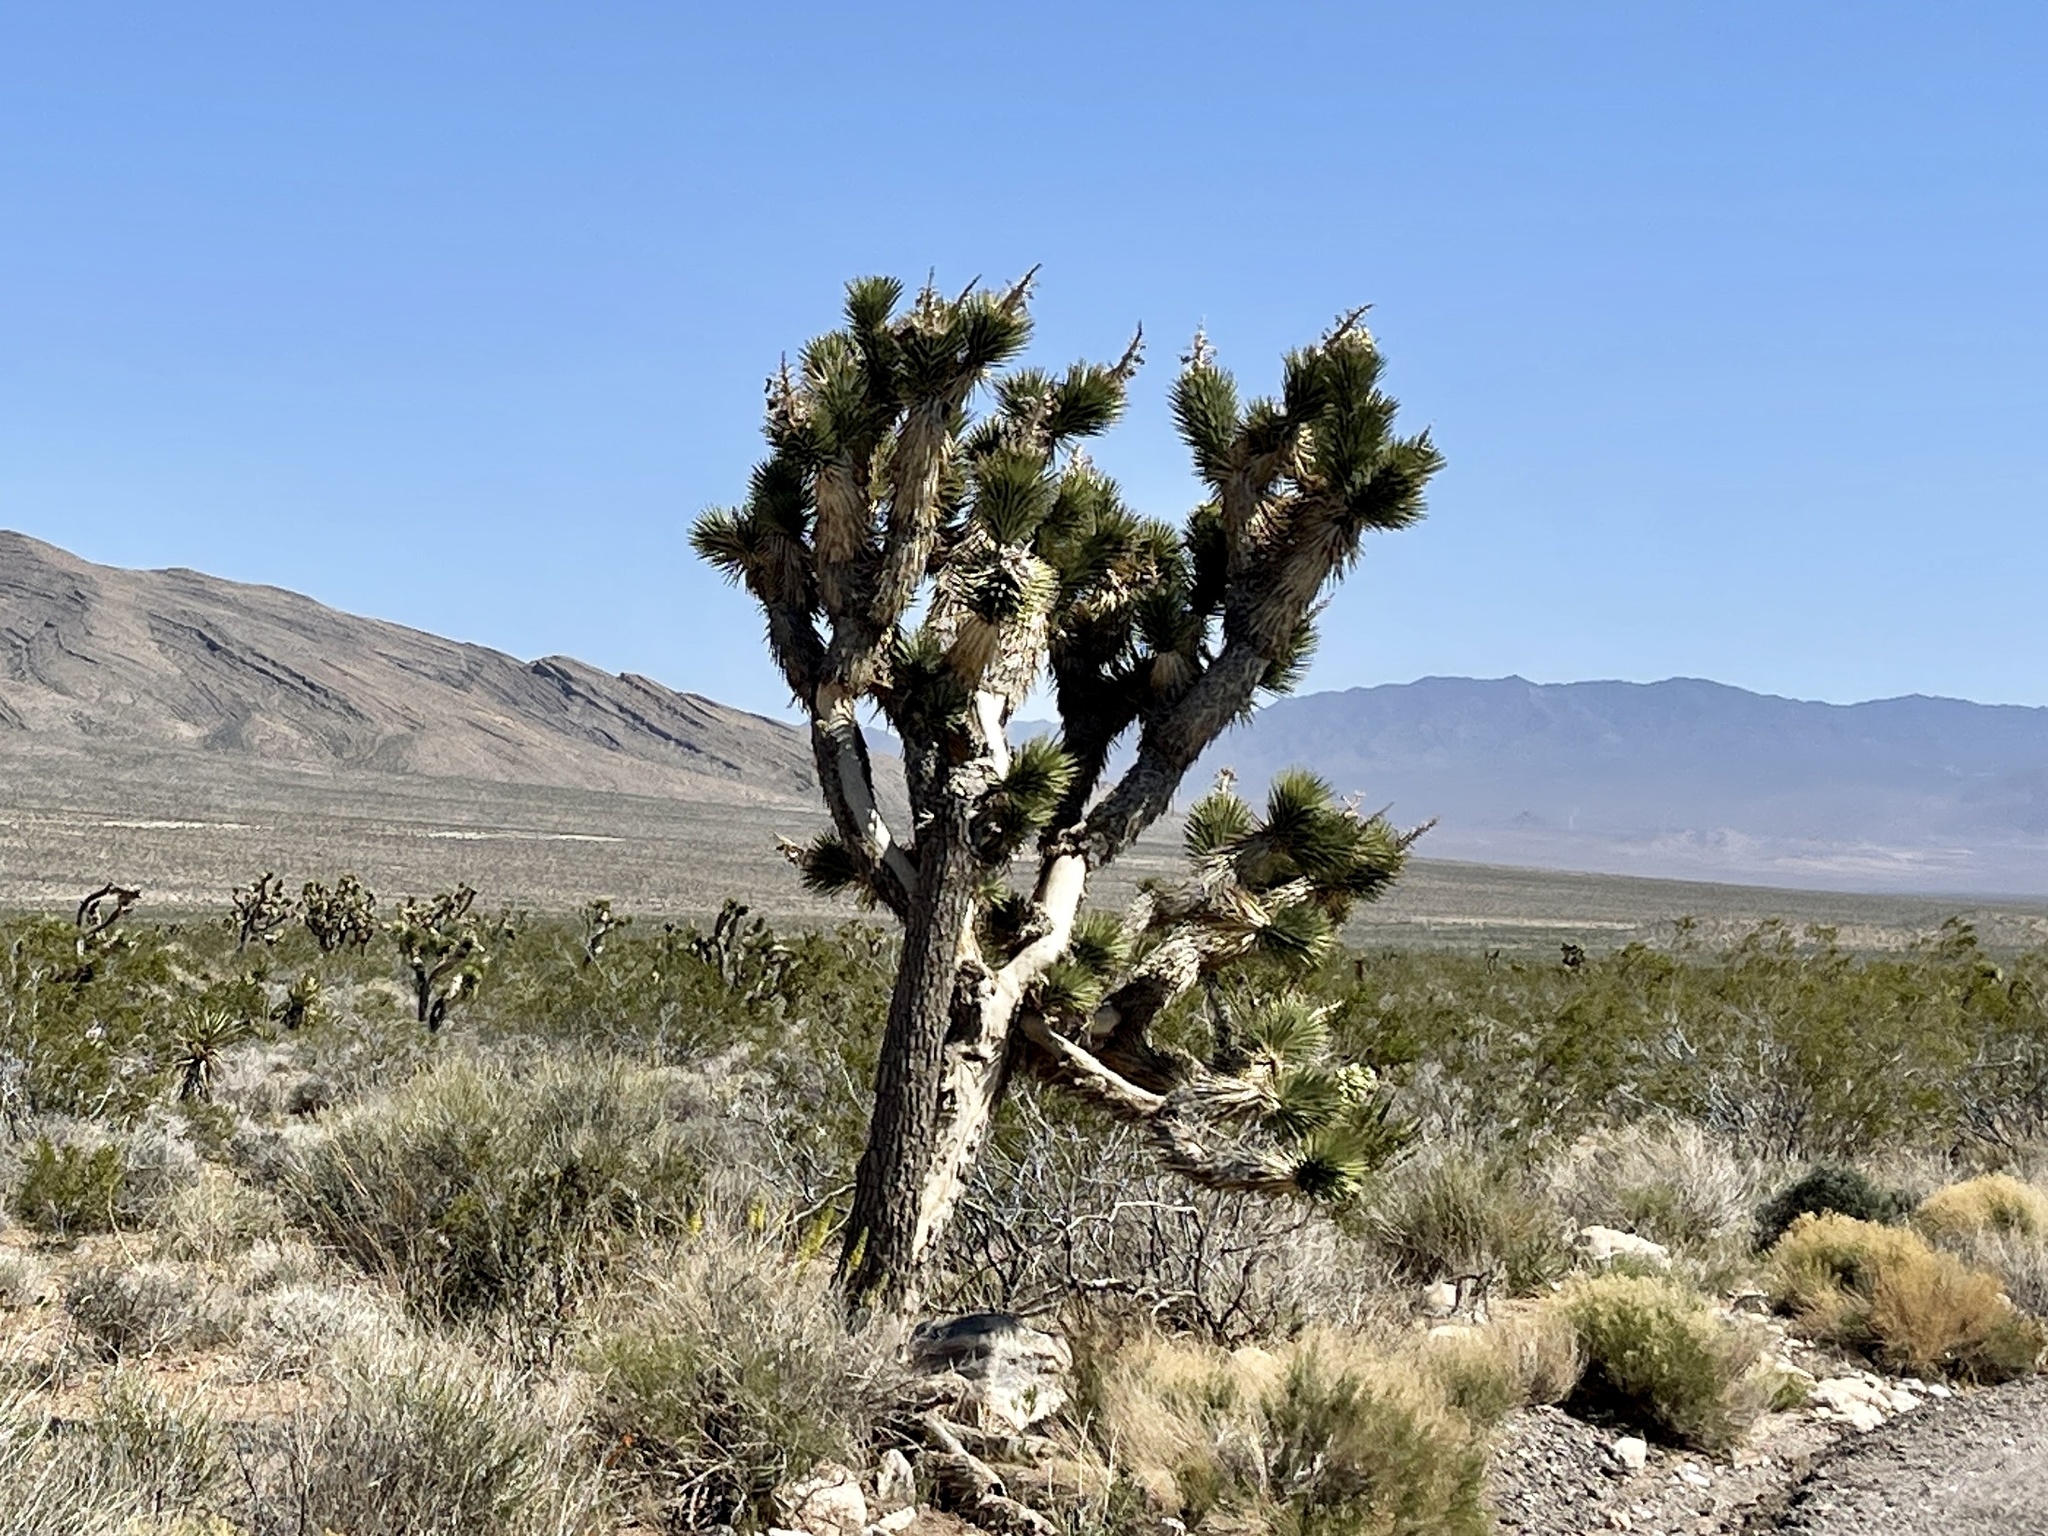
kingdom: Plantae
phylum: Tracheophyta
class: Liliopsida
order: Asparagales
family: Asparagaceae
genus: Yucca
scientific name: Yucca brevifolia
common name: Joshua tree
